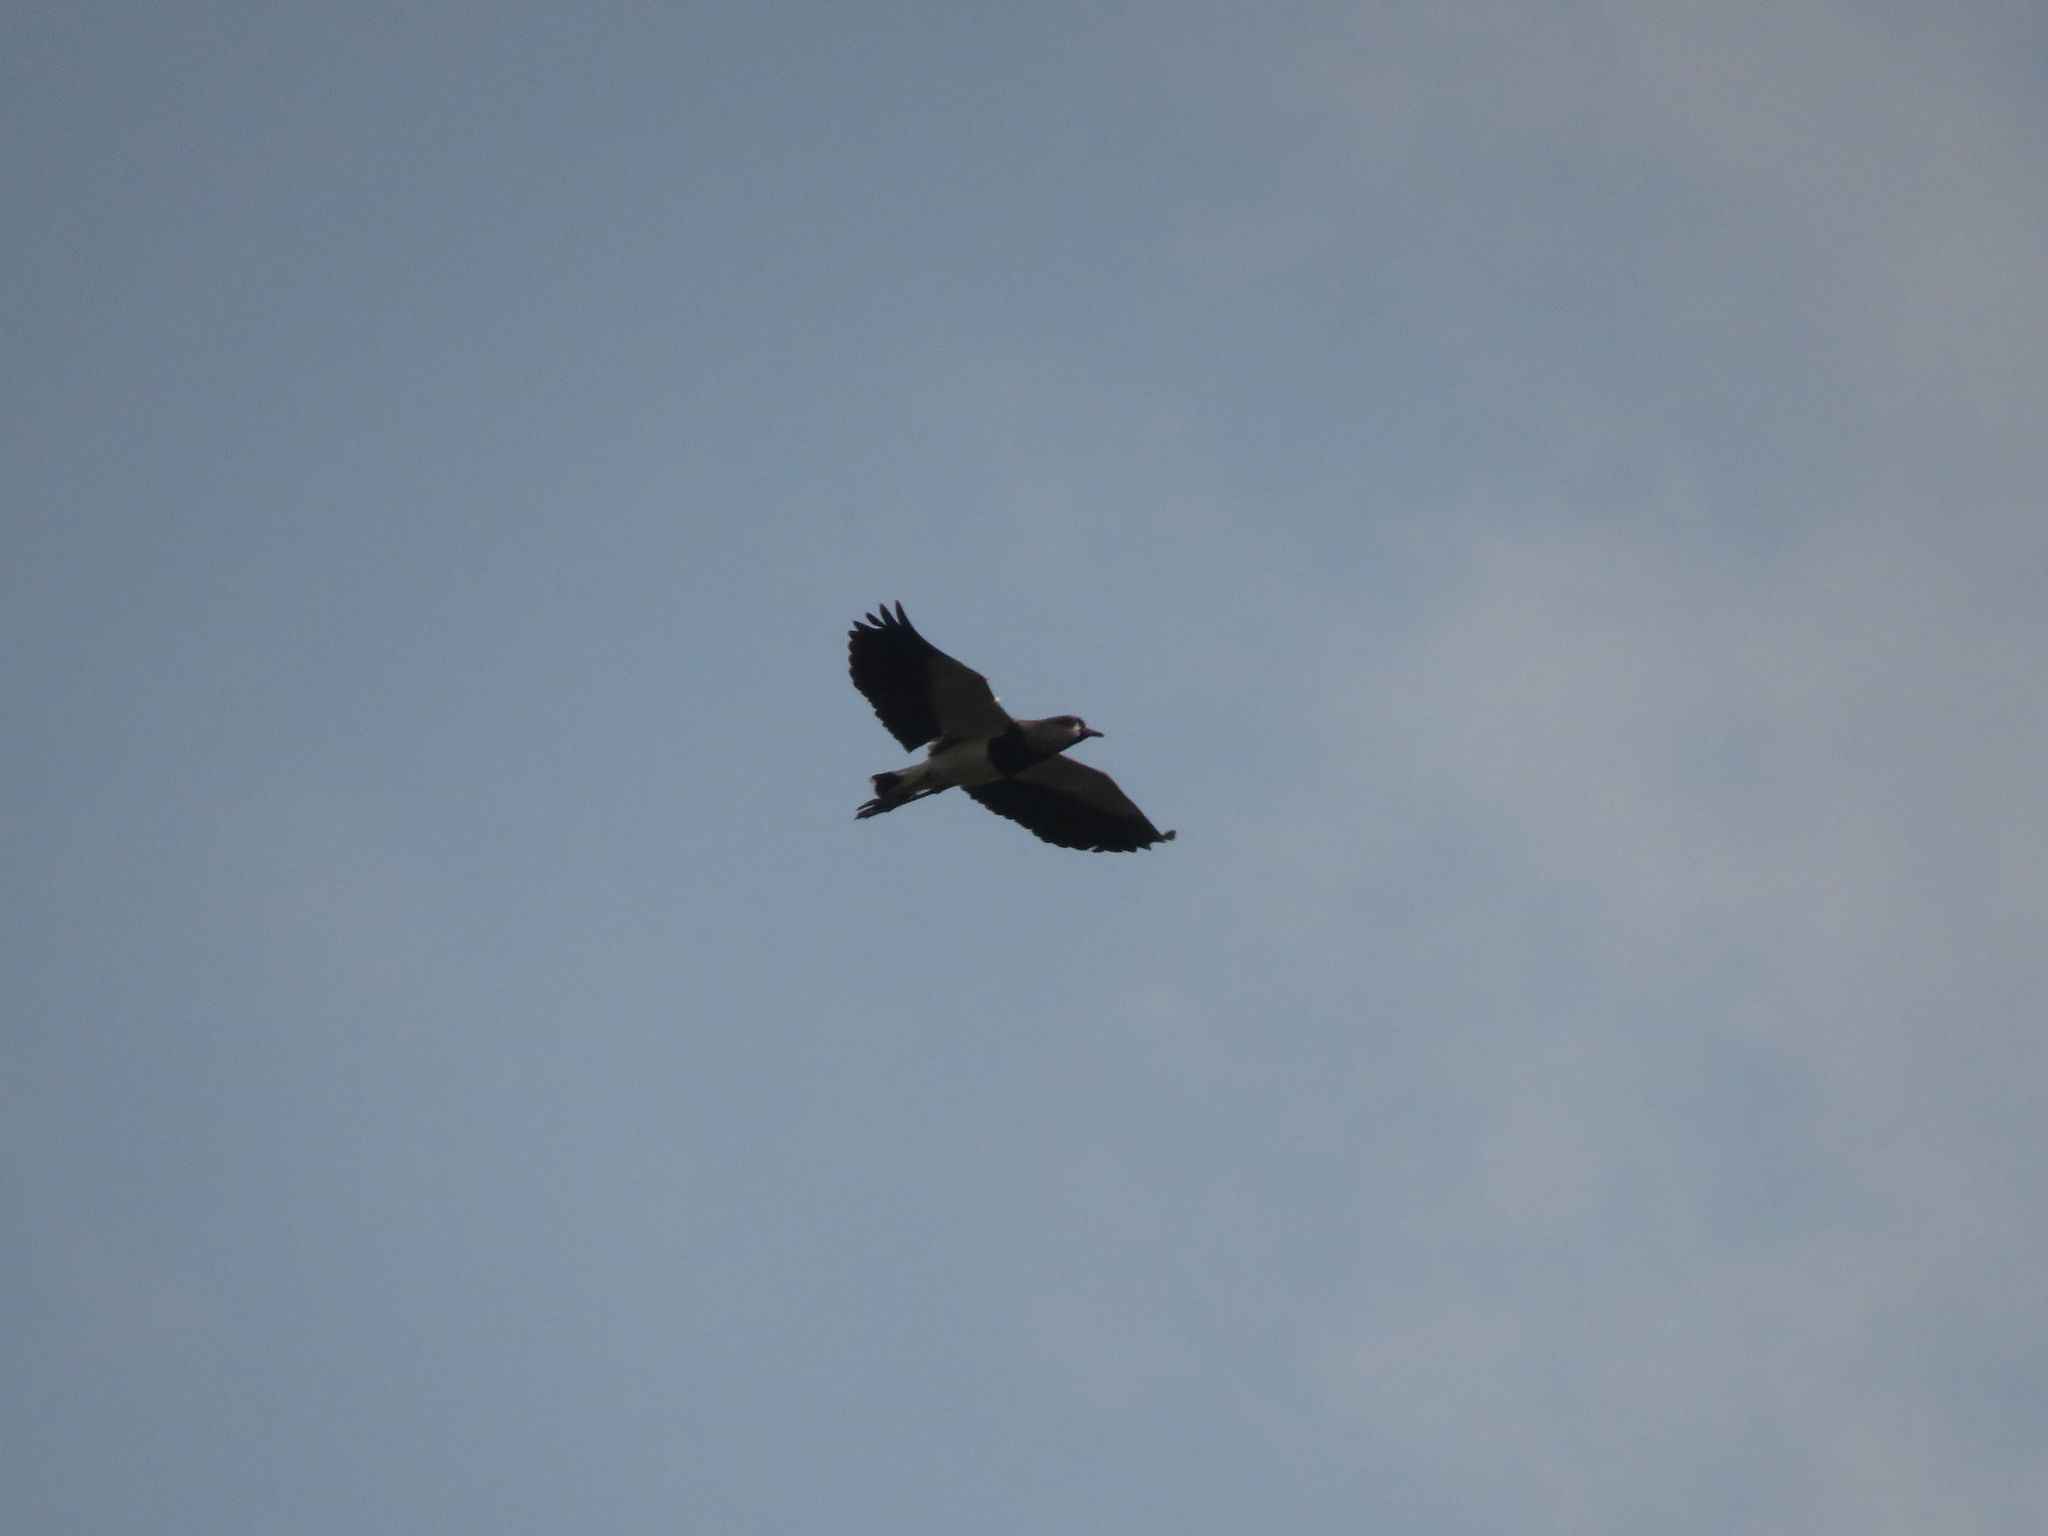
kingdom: Animalia
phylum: Chordata
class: Aves
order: Charadriiformes
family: Charadriidae
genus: Vanellus
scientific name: Vanellus chilensis
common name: Southern lapwing
